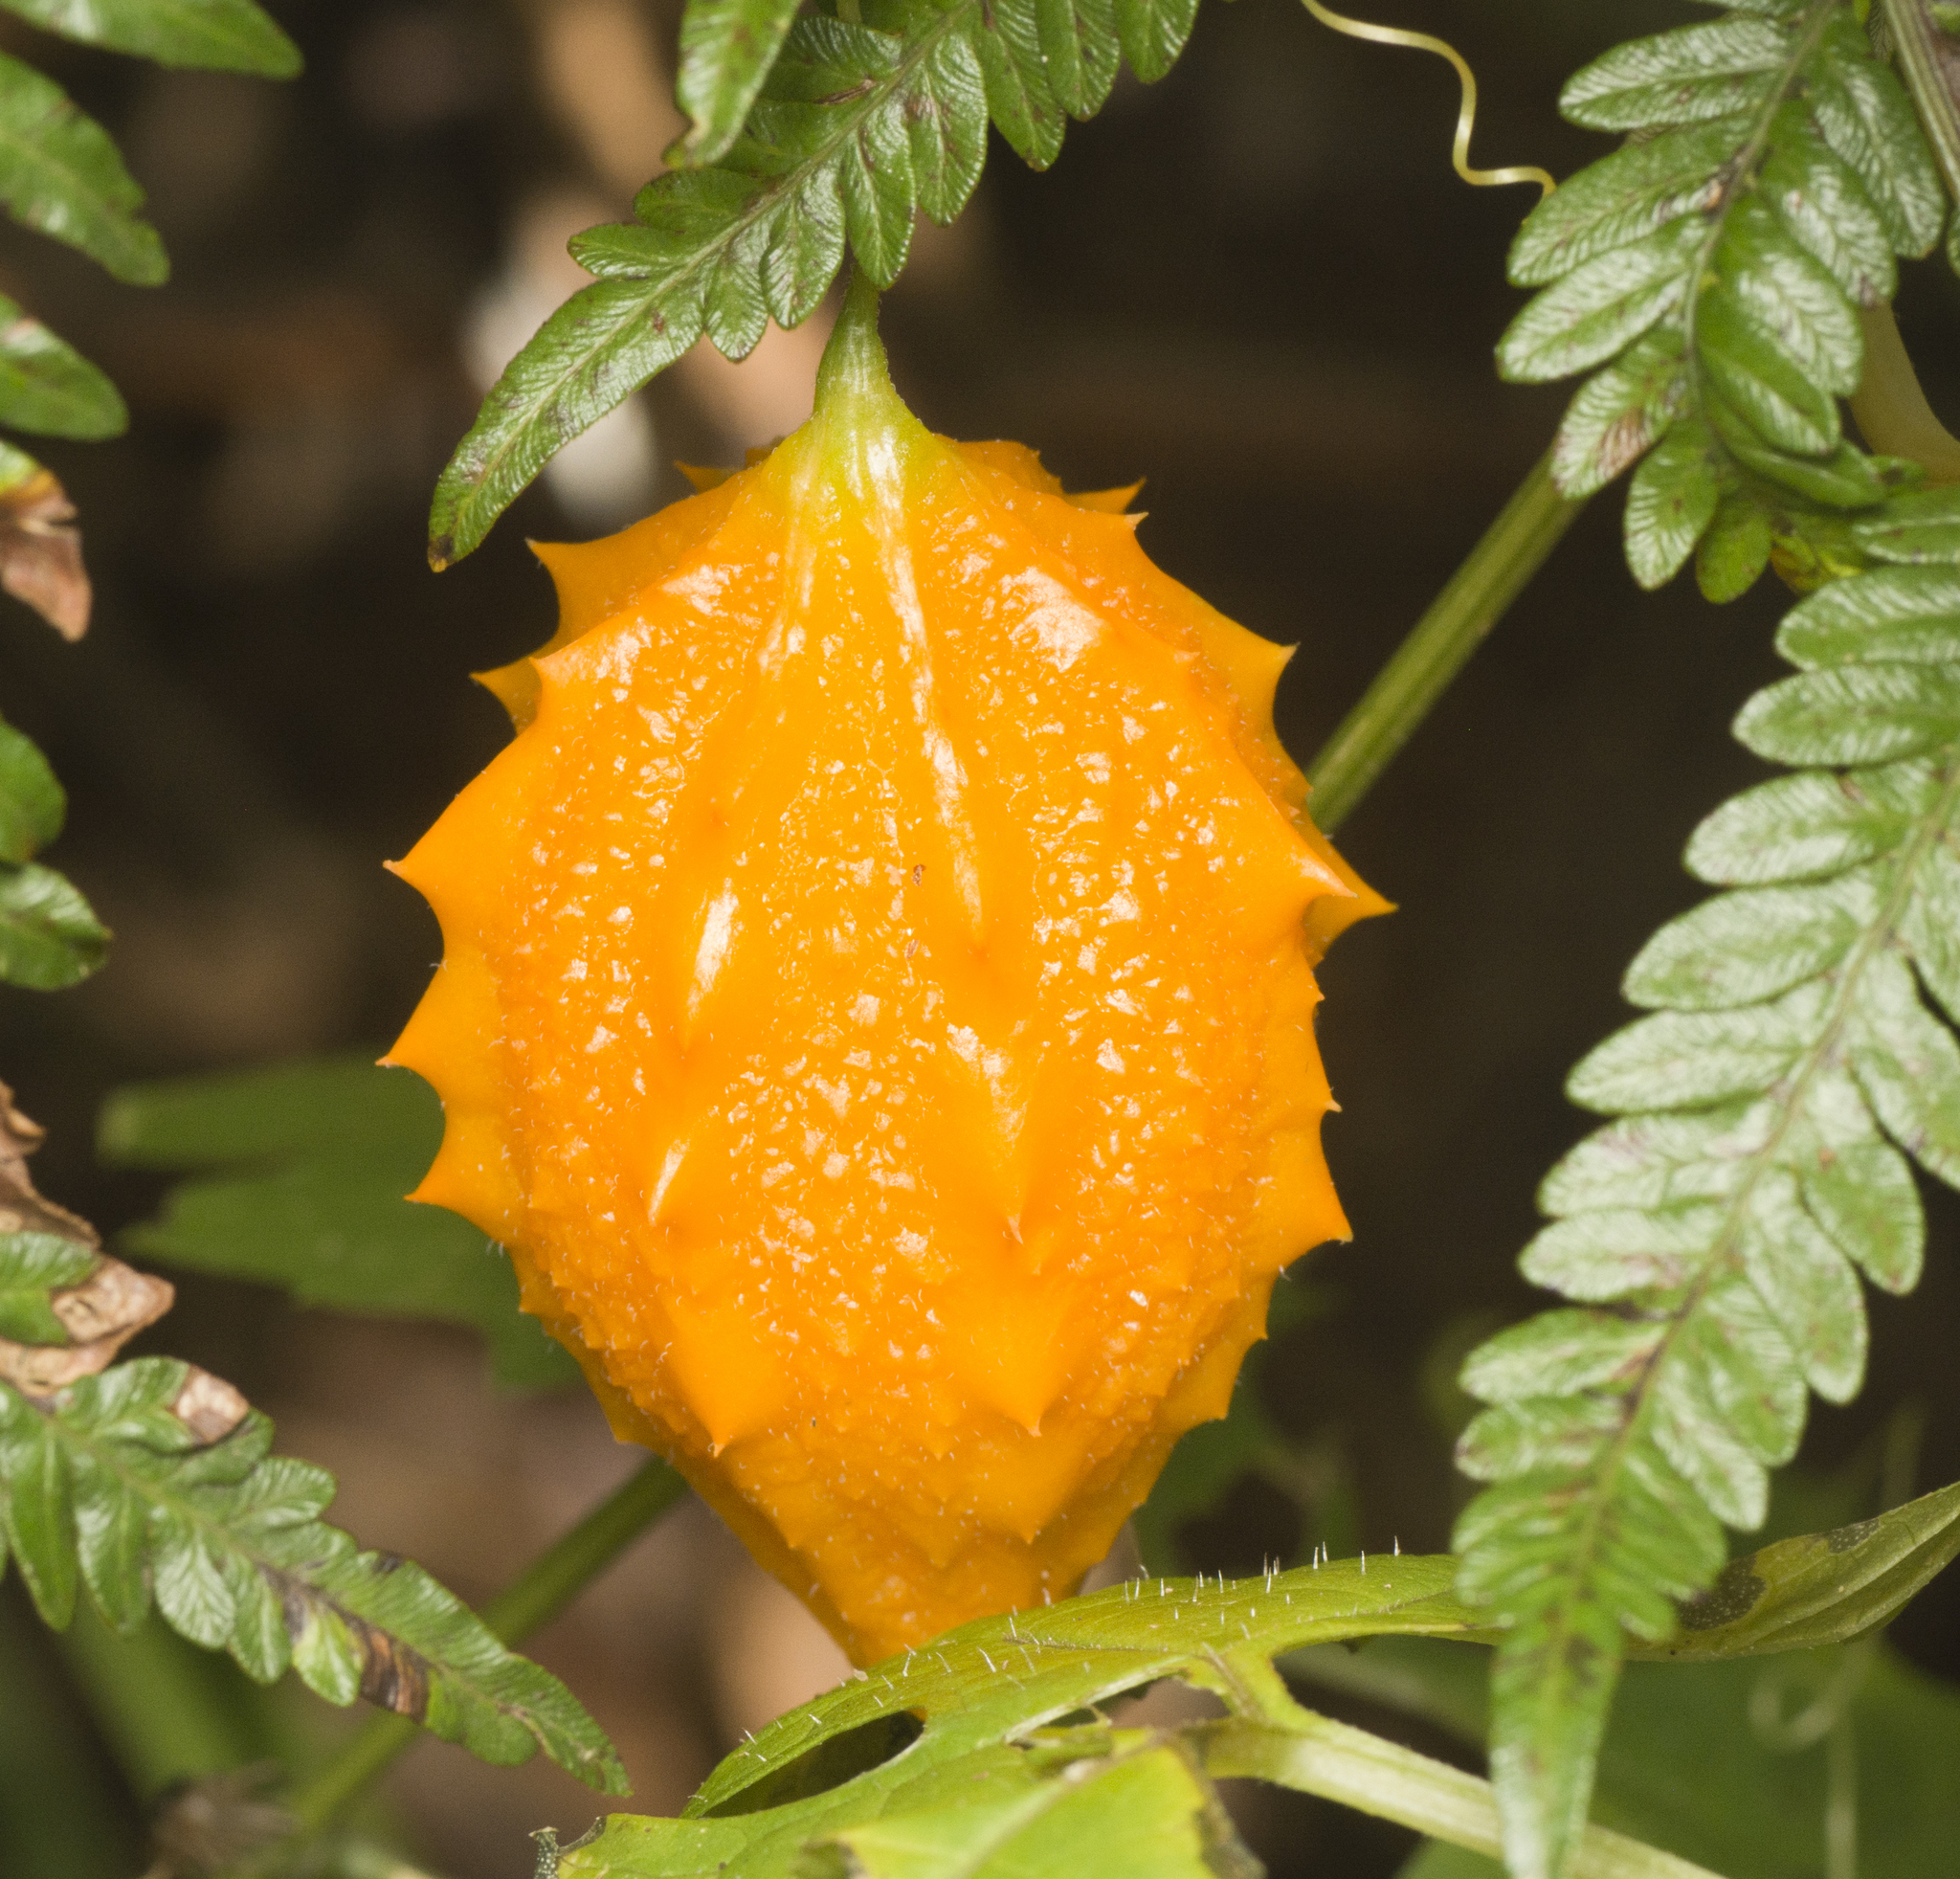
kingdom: Plantae
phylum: Tracheophyta
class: Magnoliopsida
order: Cucurbitales
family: Cucurbitaceae
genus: Momordica
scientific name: Momordica charantia
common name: Balsampear
